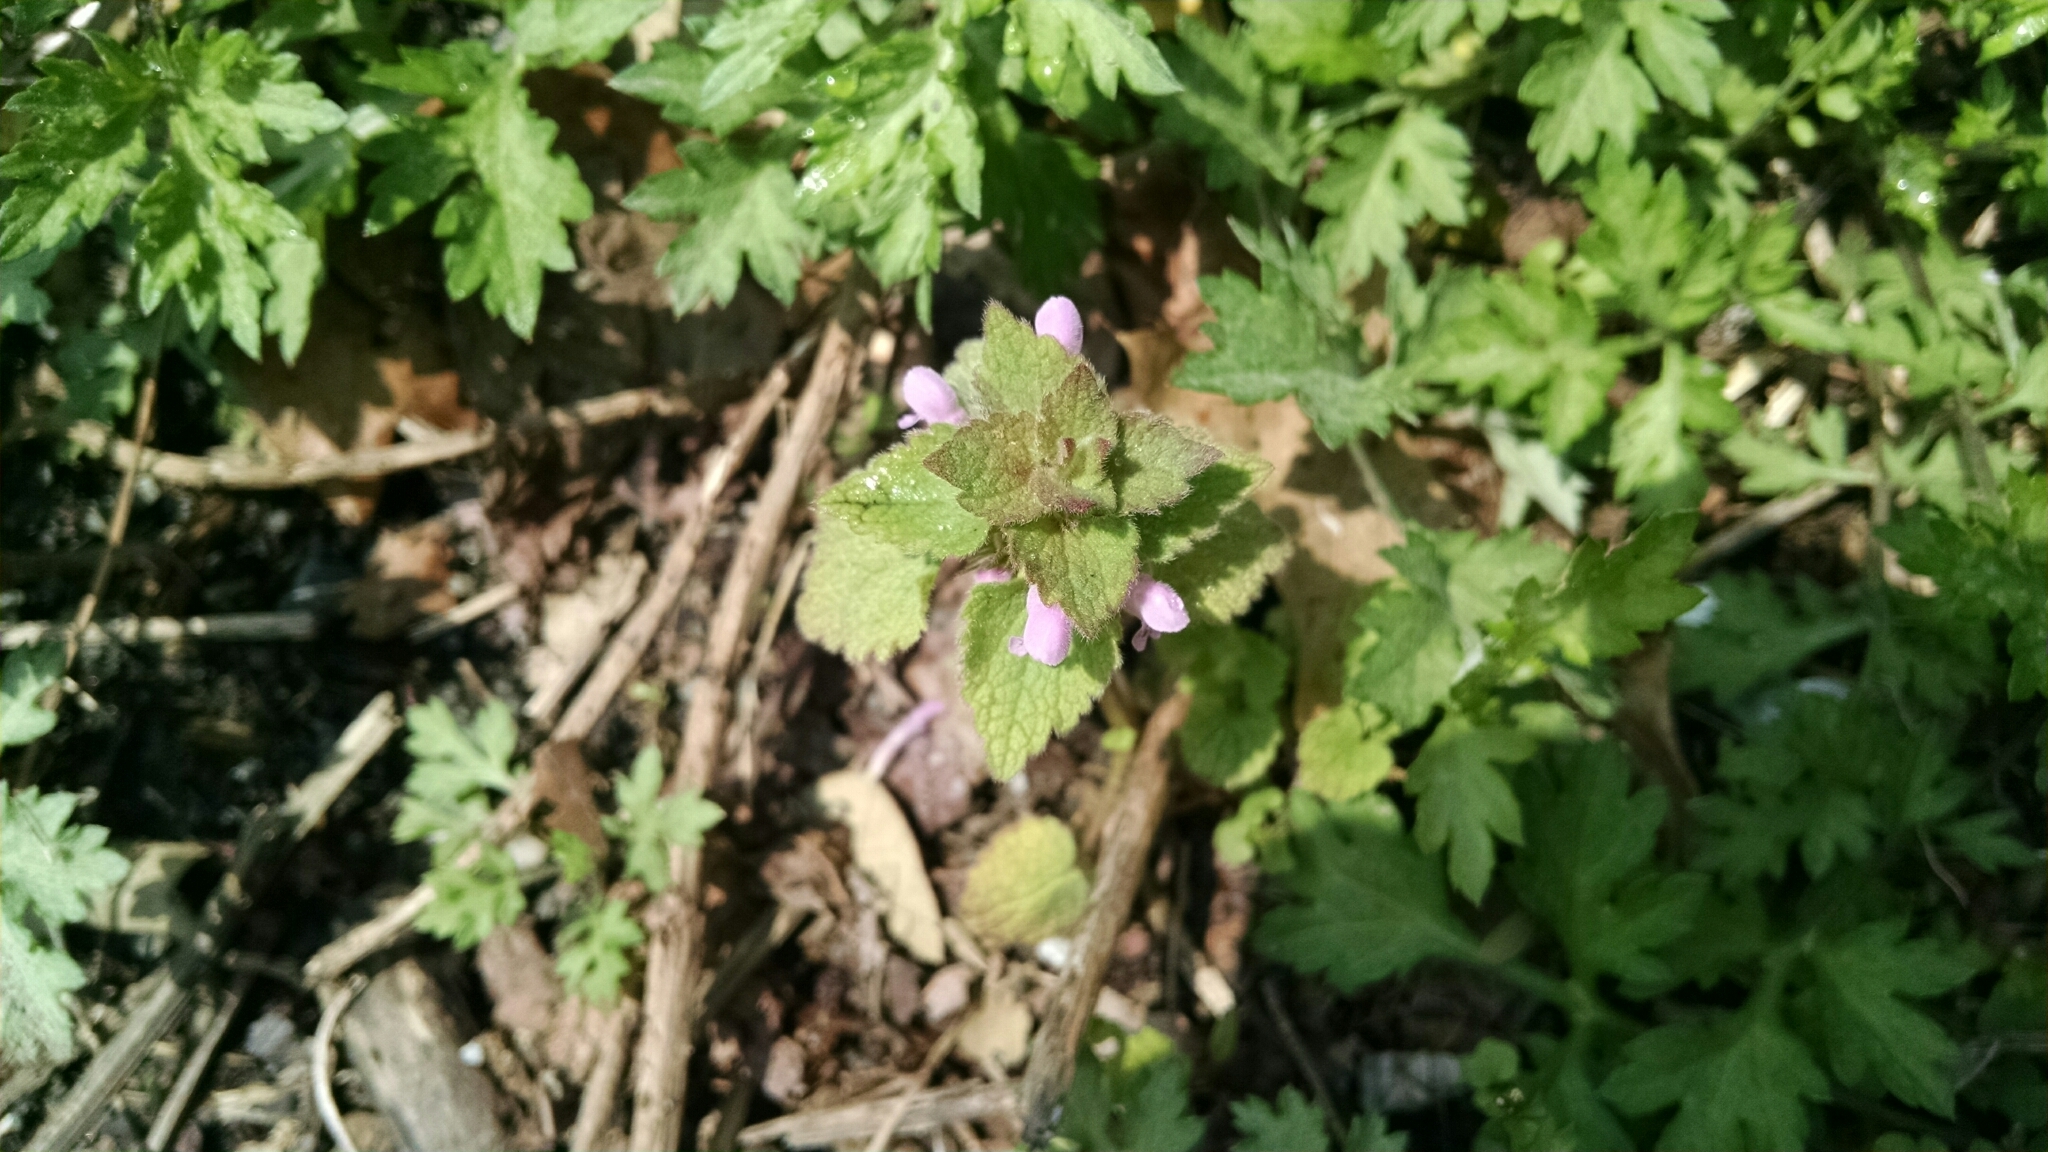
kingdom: Plantae
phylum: Tracheophyta
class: Magnoliopsida
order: Lamiales
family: Lamiaceae
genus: Lamium
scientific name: Lamium purpureum
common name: Red dead-nettle
